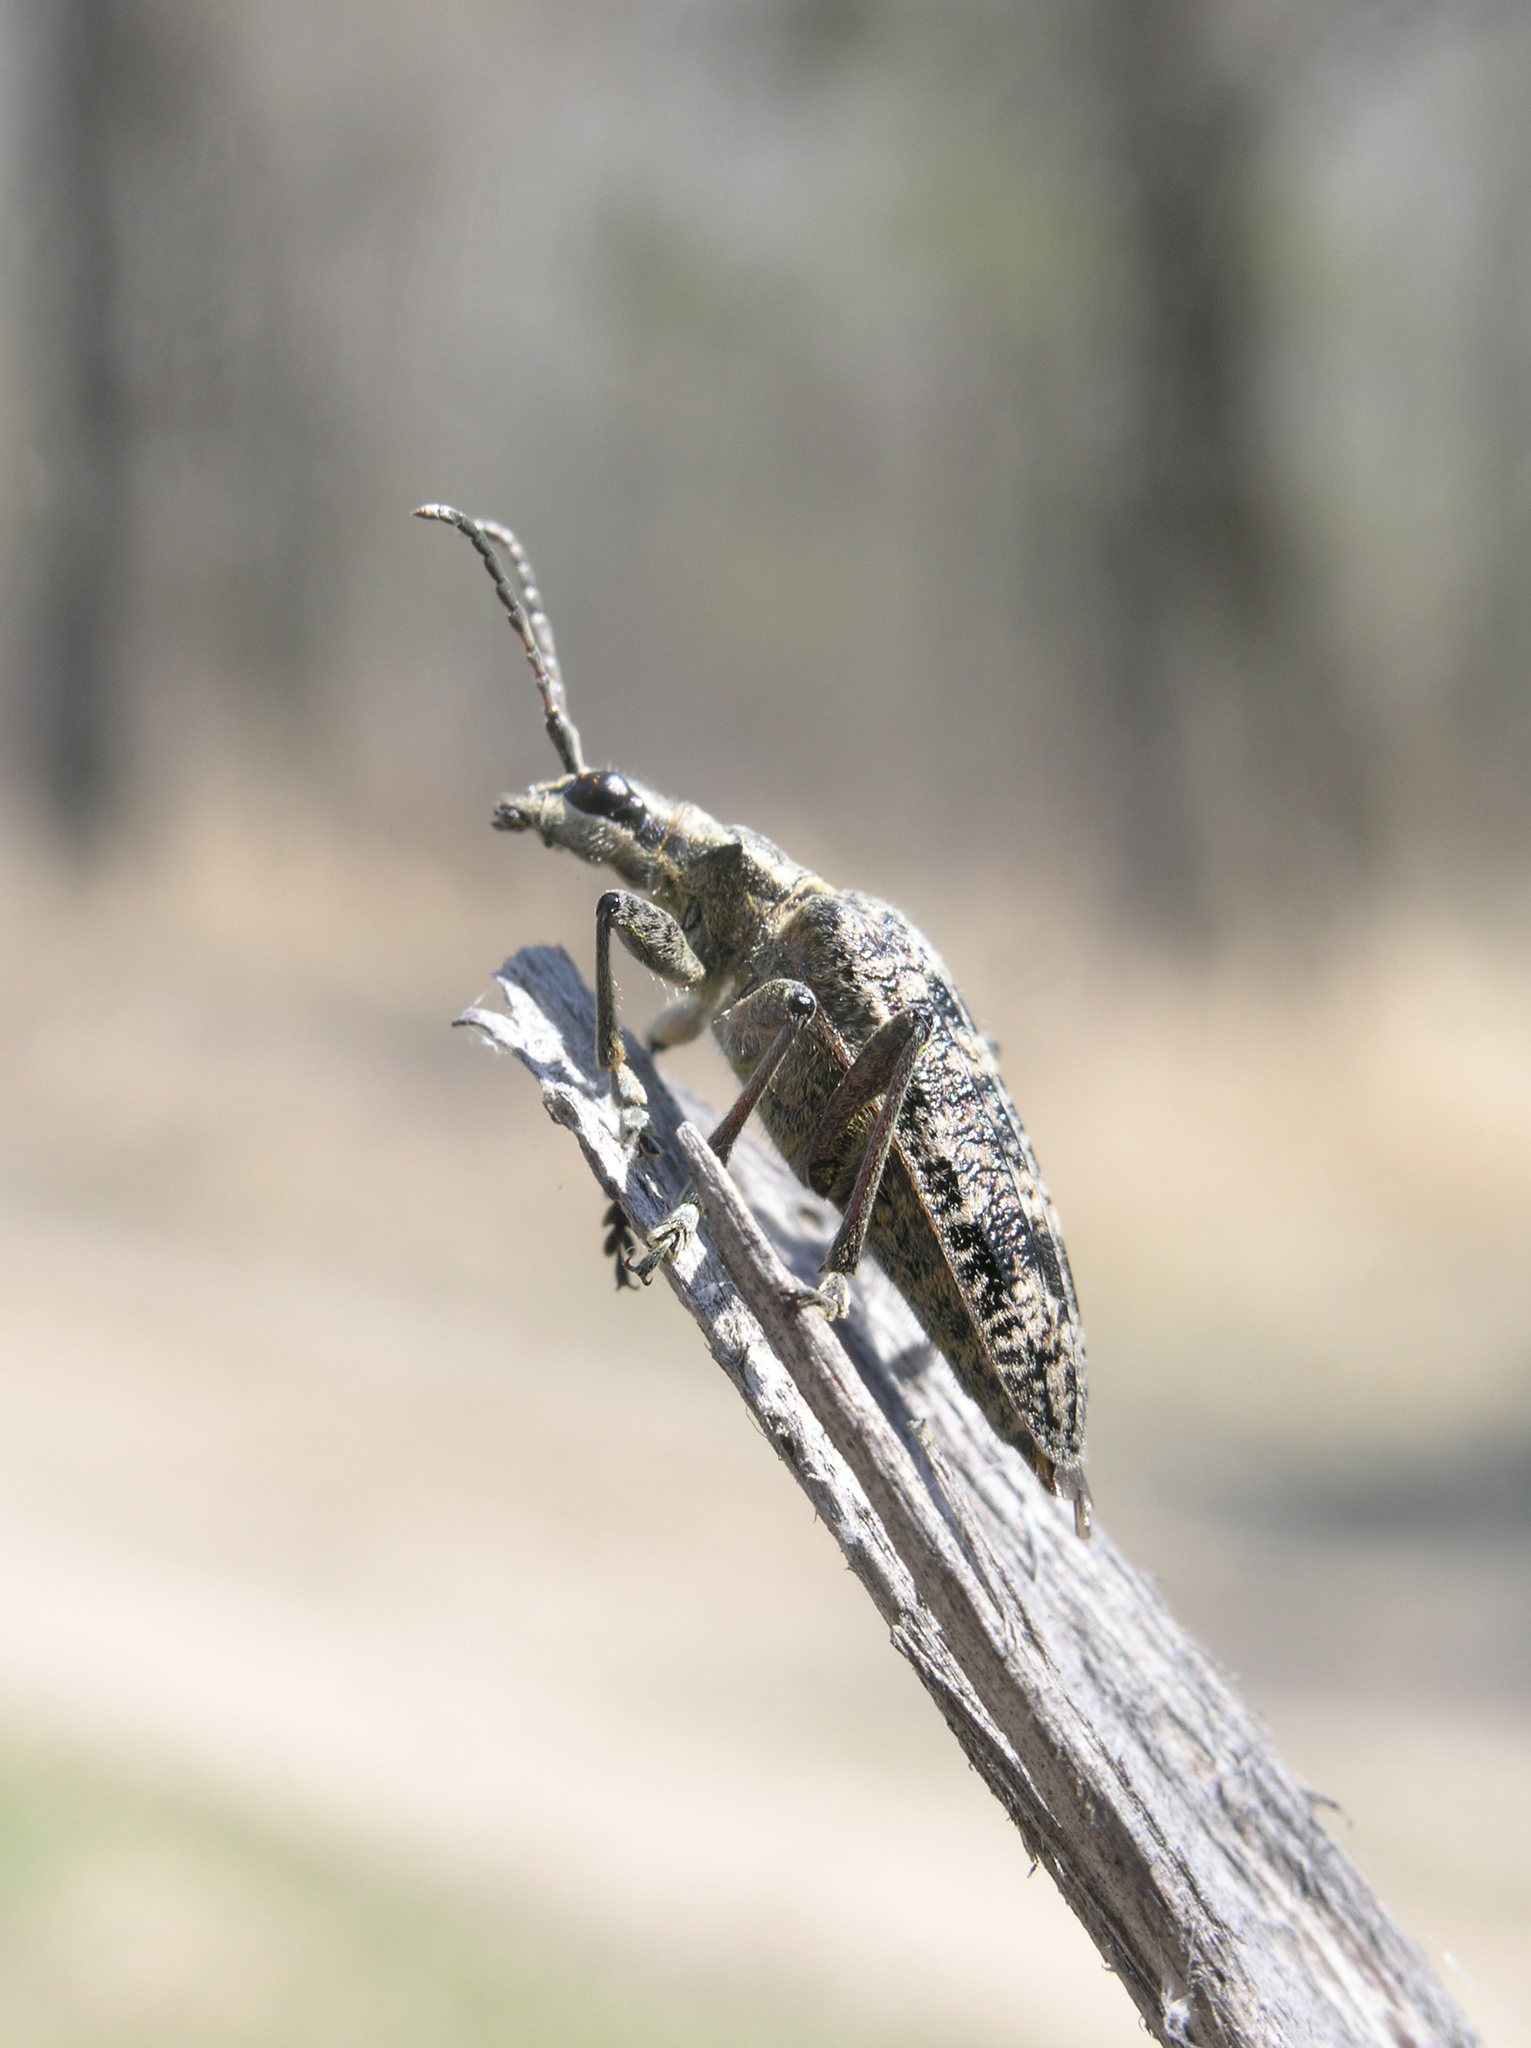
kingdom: Animalia
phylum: Arthropoda
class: Insecta
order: Coleoptera
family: Cerambycidae
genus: Rhagium
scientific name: Rhagium inquisitor
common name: Ribbed pine borer
